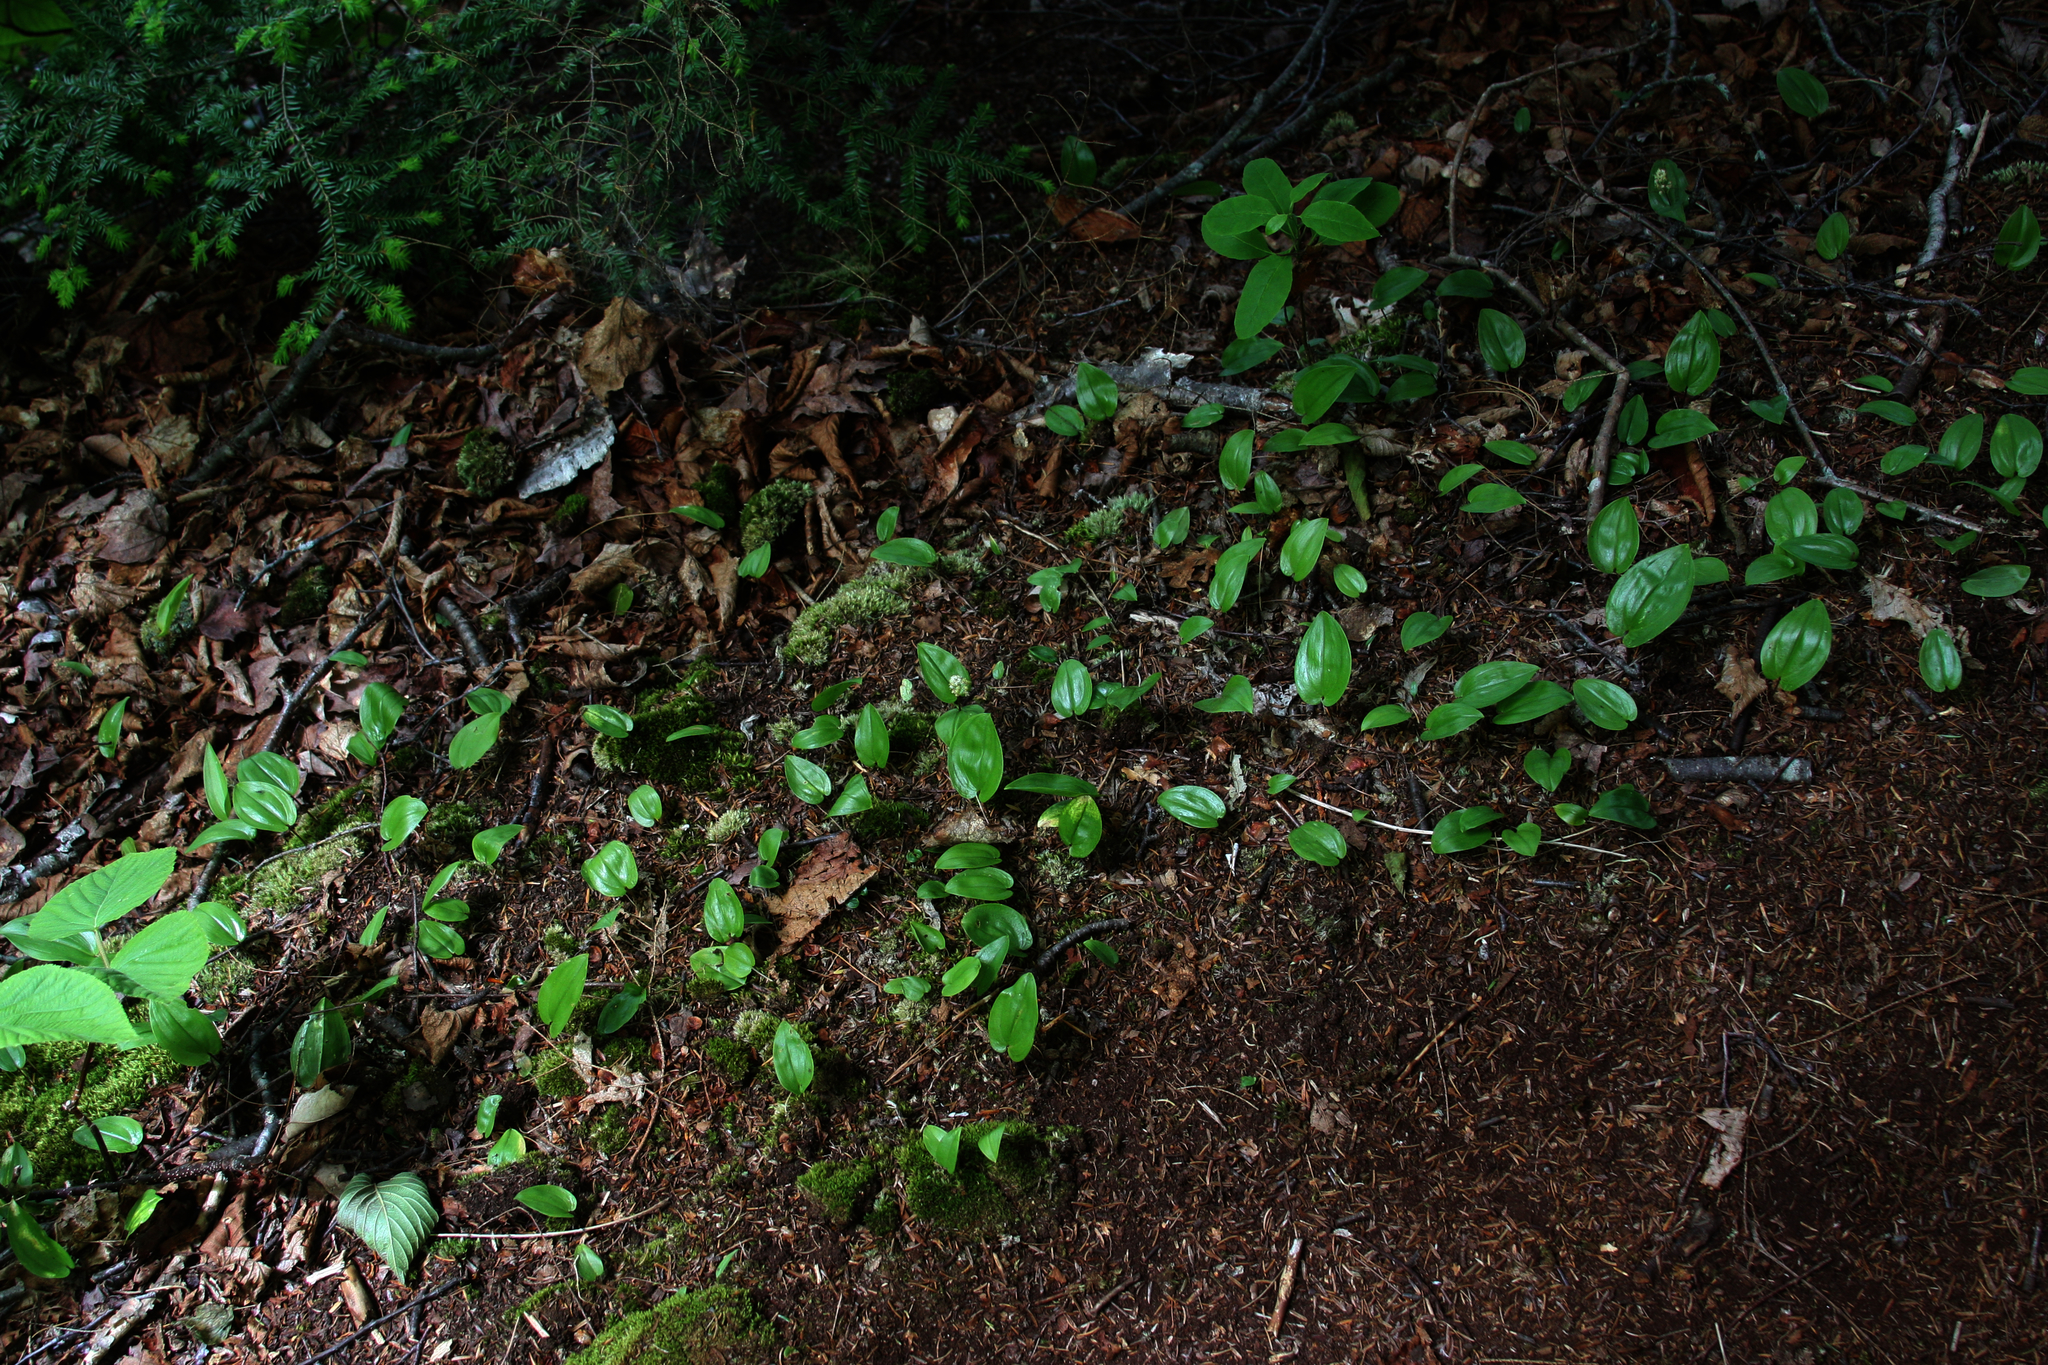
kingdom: Plantae
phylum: Tracheophyta
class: Liliopsida
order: Asparagales
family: Asparagaceae
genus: Maianthemum
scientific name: Maianthemum canadense
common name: False lily-of-the-valley
